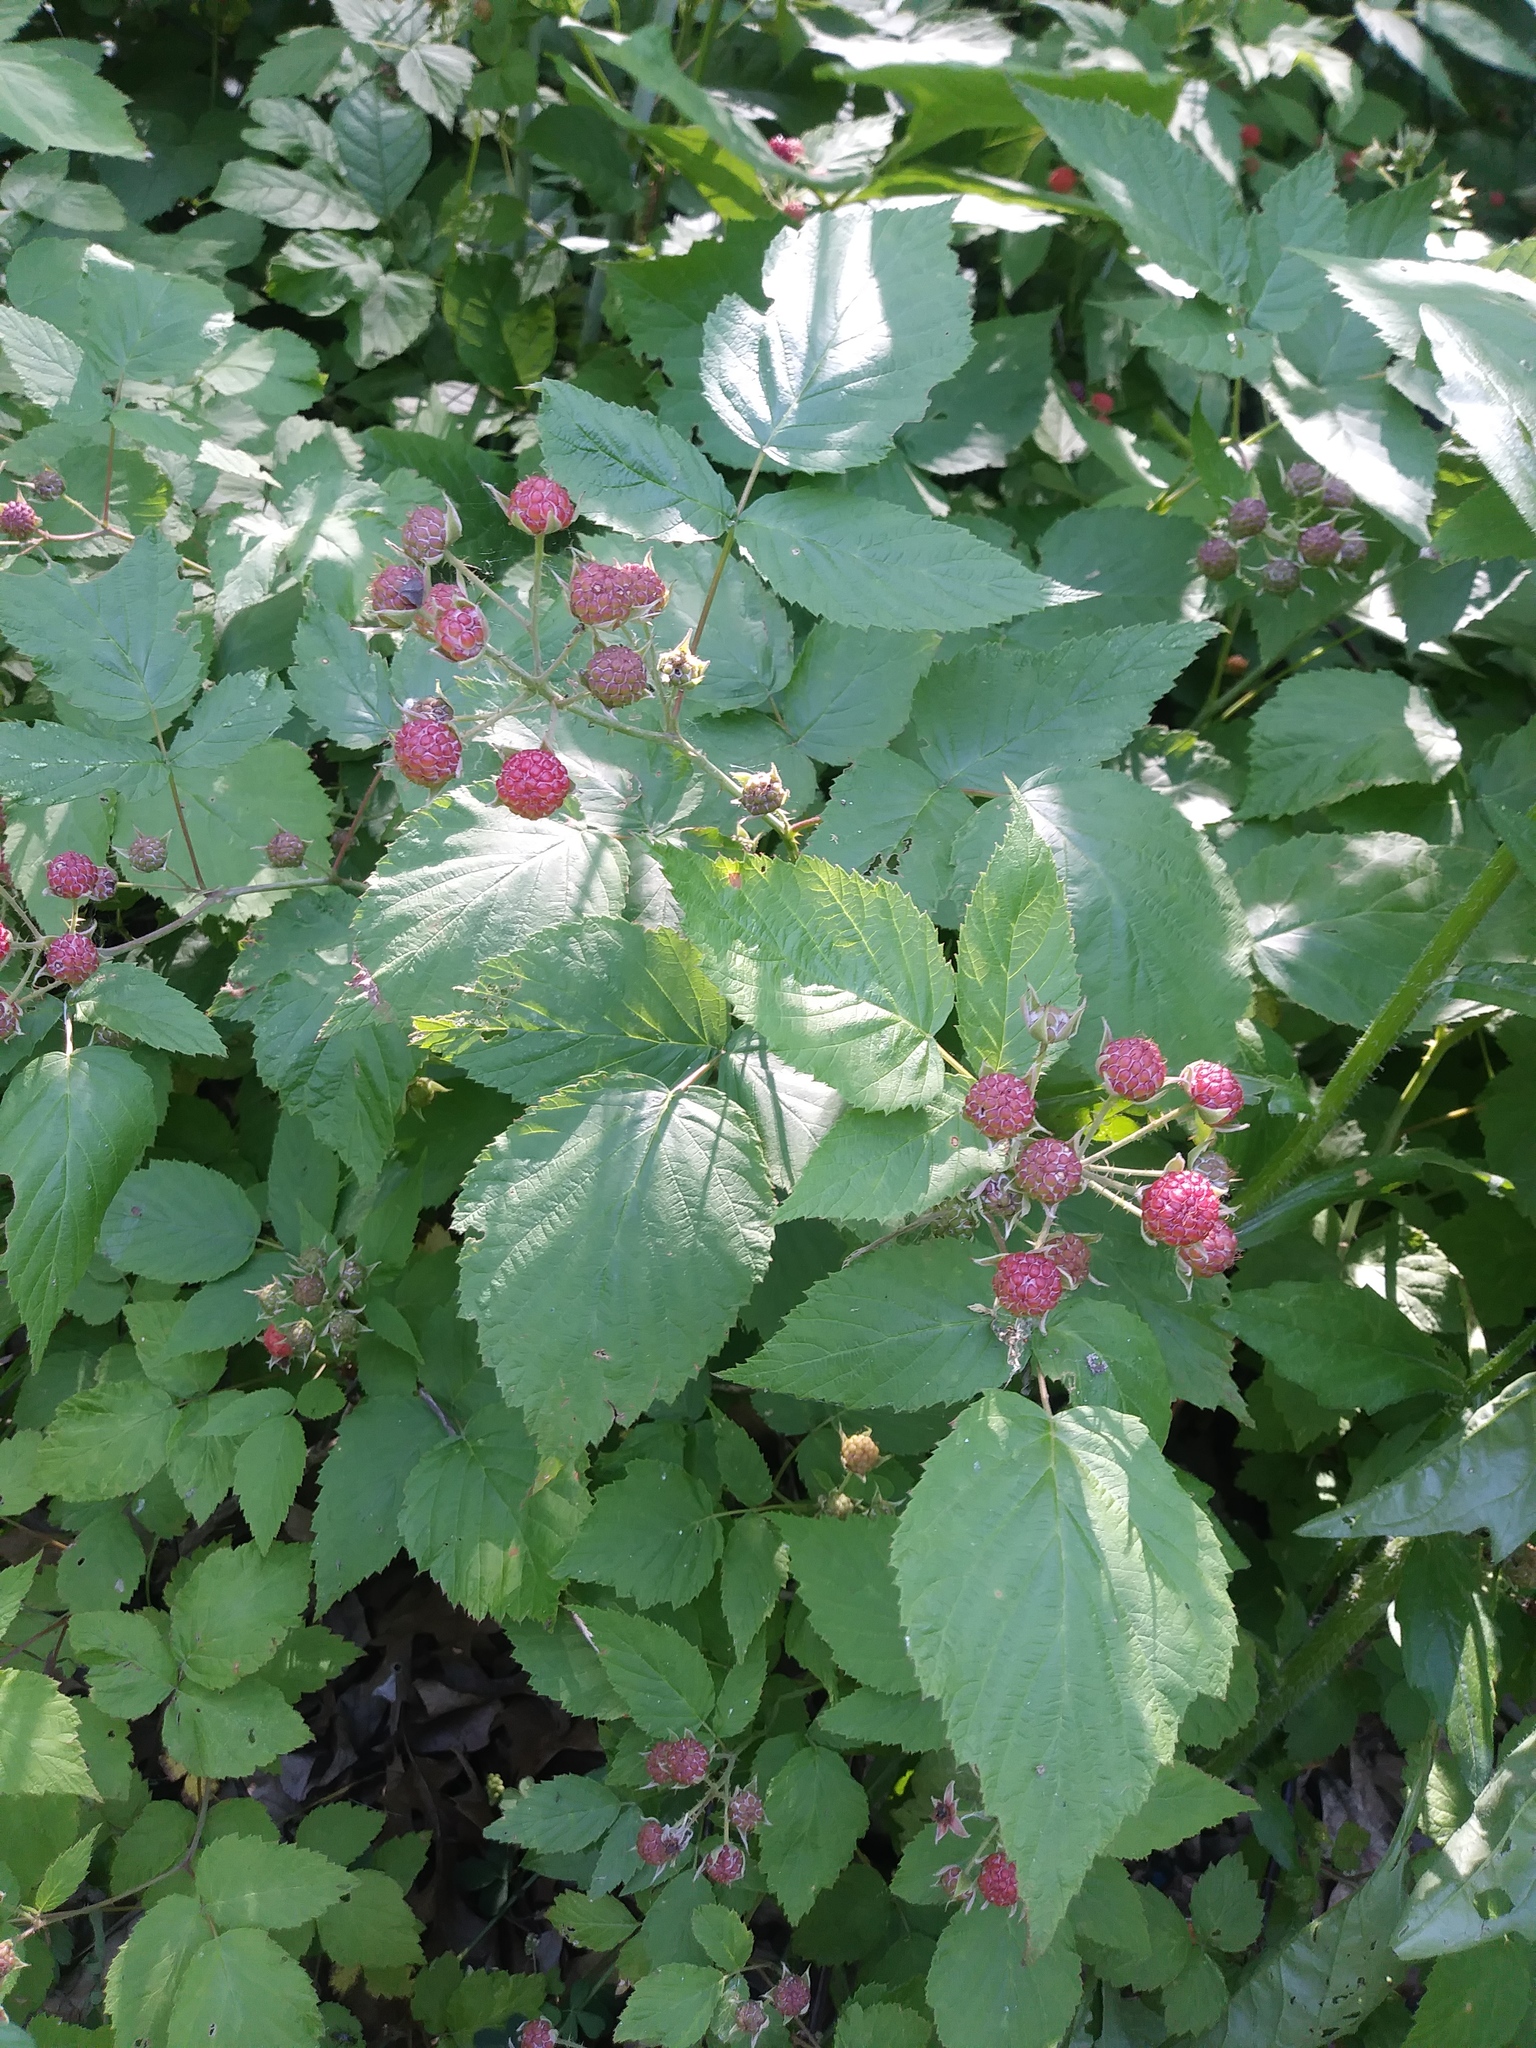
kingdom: Plantae
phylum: Tracheophyta
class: Magnoliopsida
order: Rosales
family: Rosaceae
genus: Rubus
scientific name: Rubus occidentalis
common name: Black raspberry
